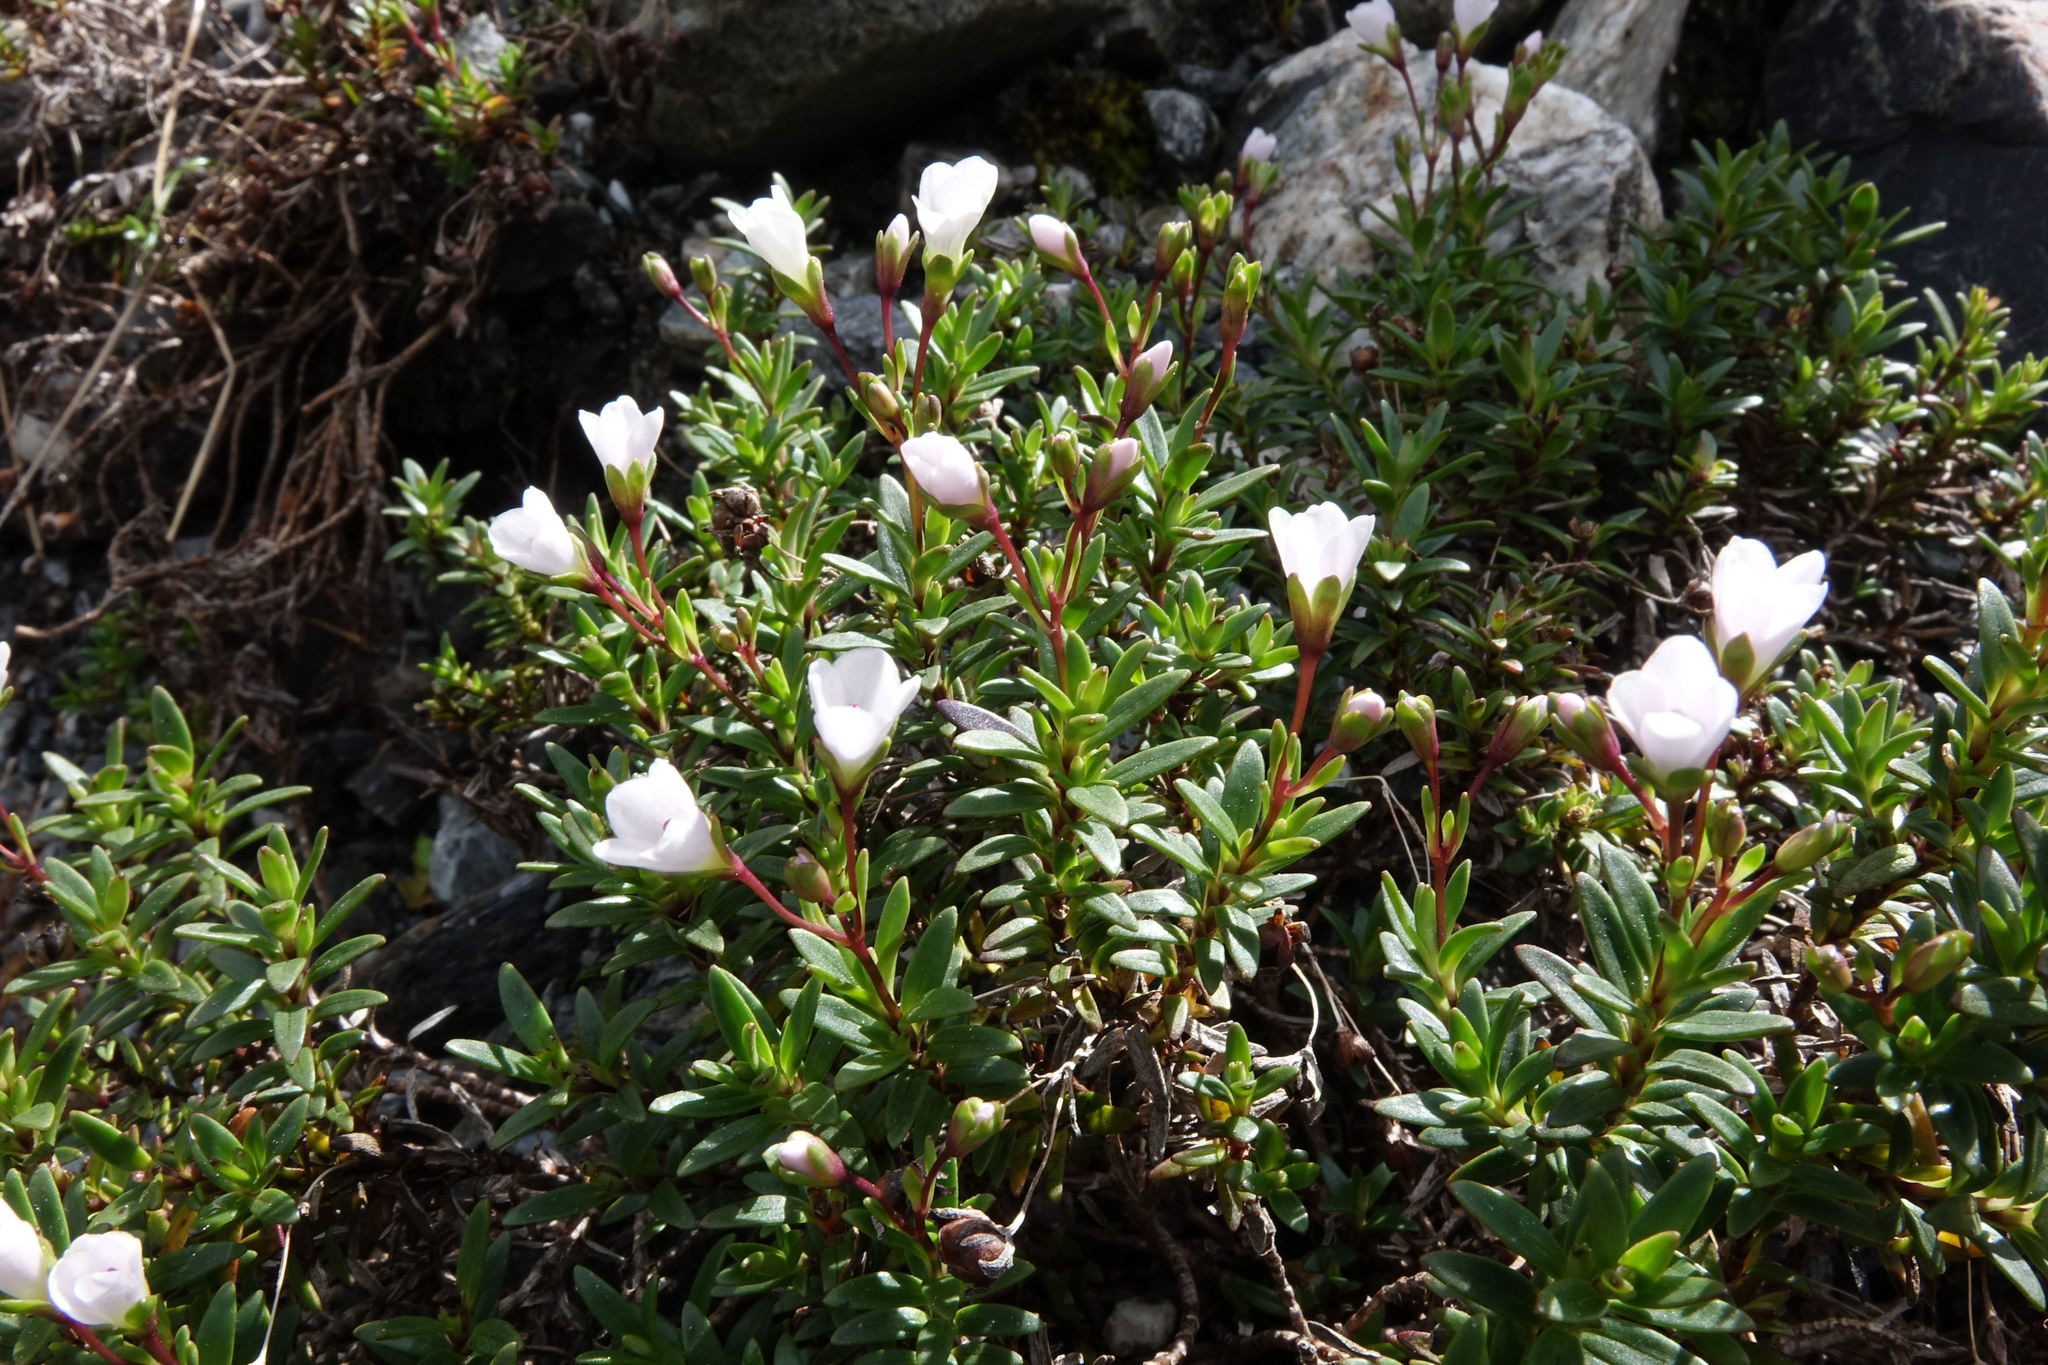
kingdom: Plantae
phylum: Tracheophyta
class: Magnoliopsida
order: Lamiales
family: Plantaginaceae
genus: Veronica
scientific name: Veronica colostylis
